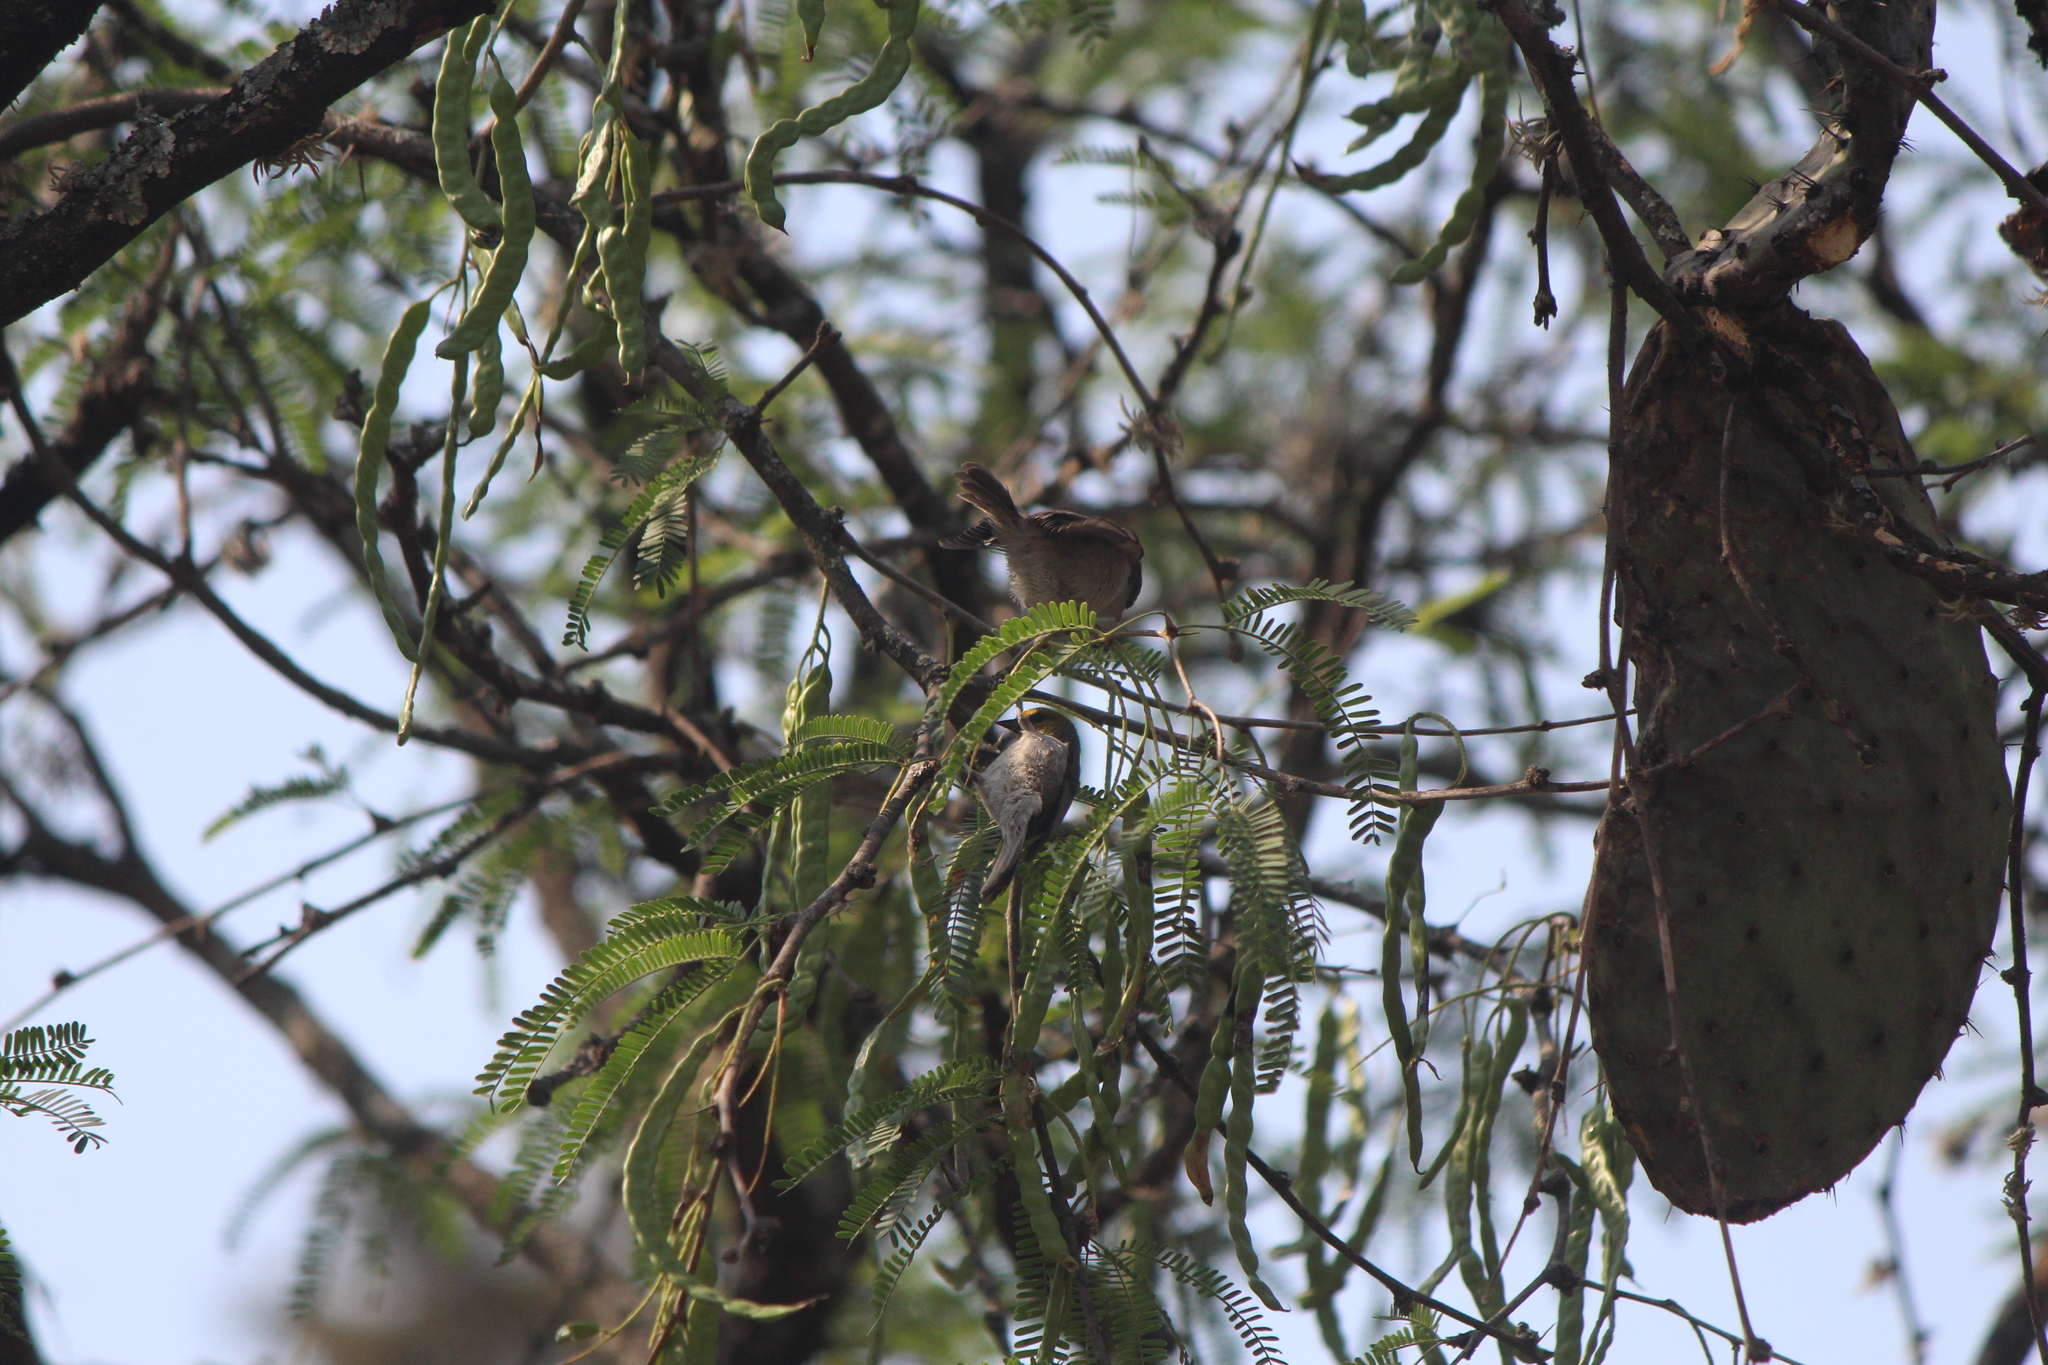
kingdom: Animalia
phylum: Chordata
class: Aves
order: Passeriformes
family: Remizidae
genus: Auriparus
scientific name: Auriparus flaviceps
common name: Verdin
